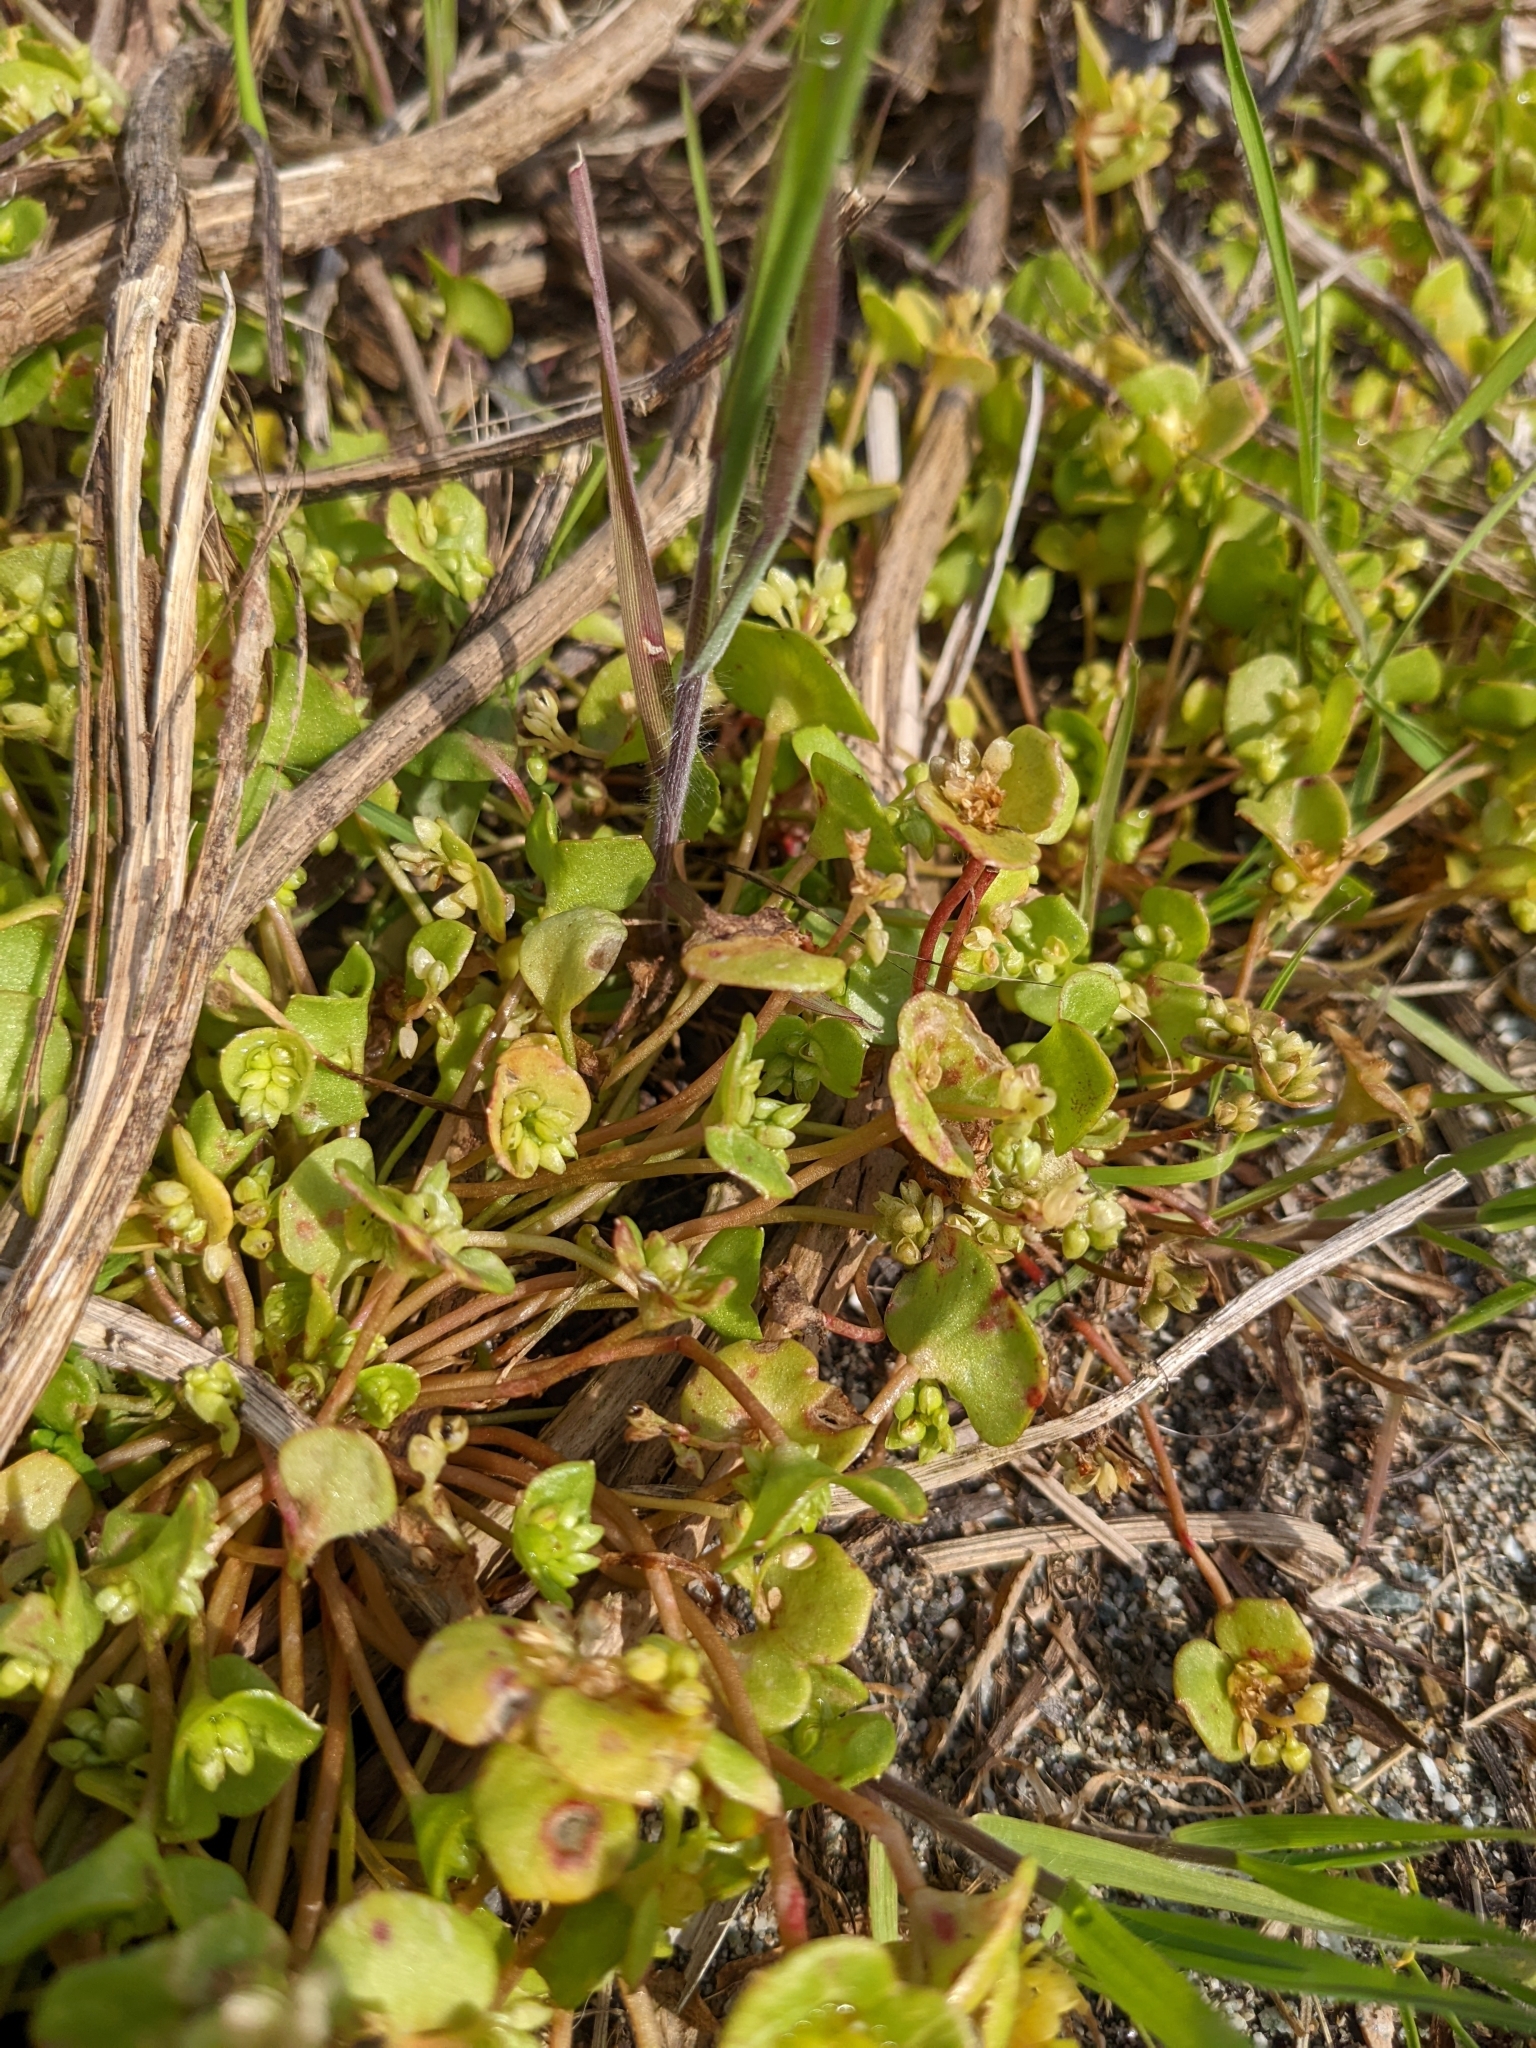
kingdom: Plantae
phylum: Tracheophyta
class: Magnoliopsida
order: Caryophyllales
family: Montiaceae
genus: Claytonia
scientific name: Claytonia rubra
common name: Erubescent miner's-lettuce
